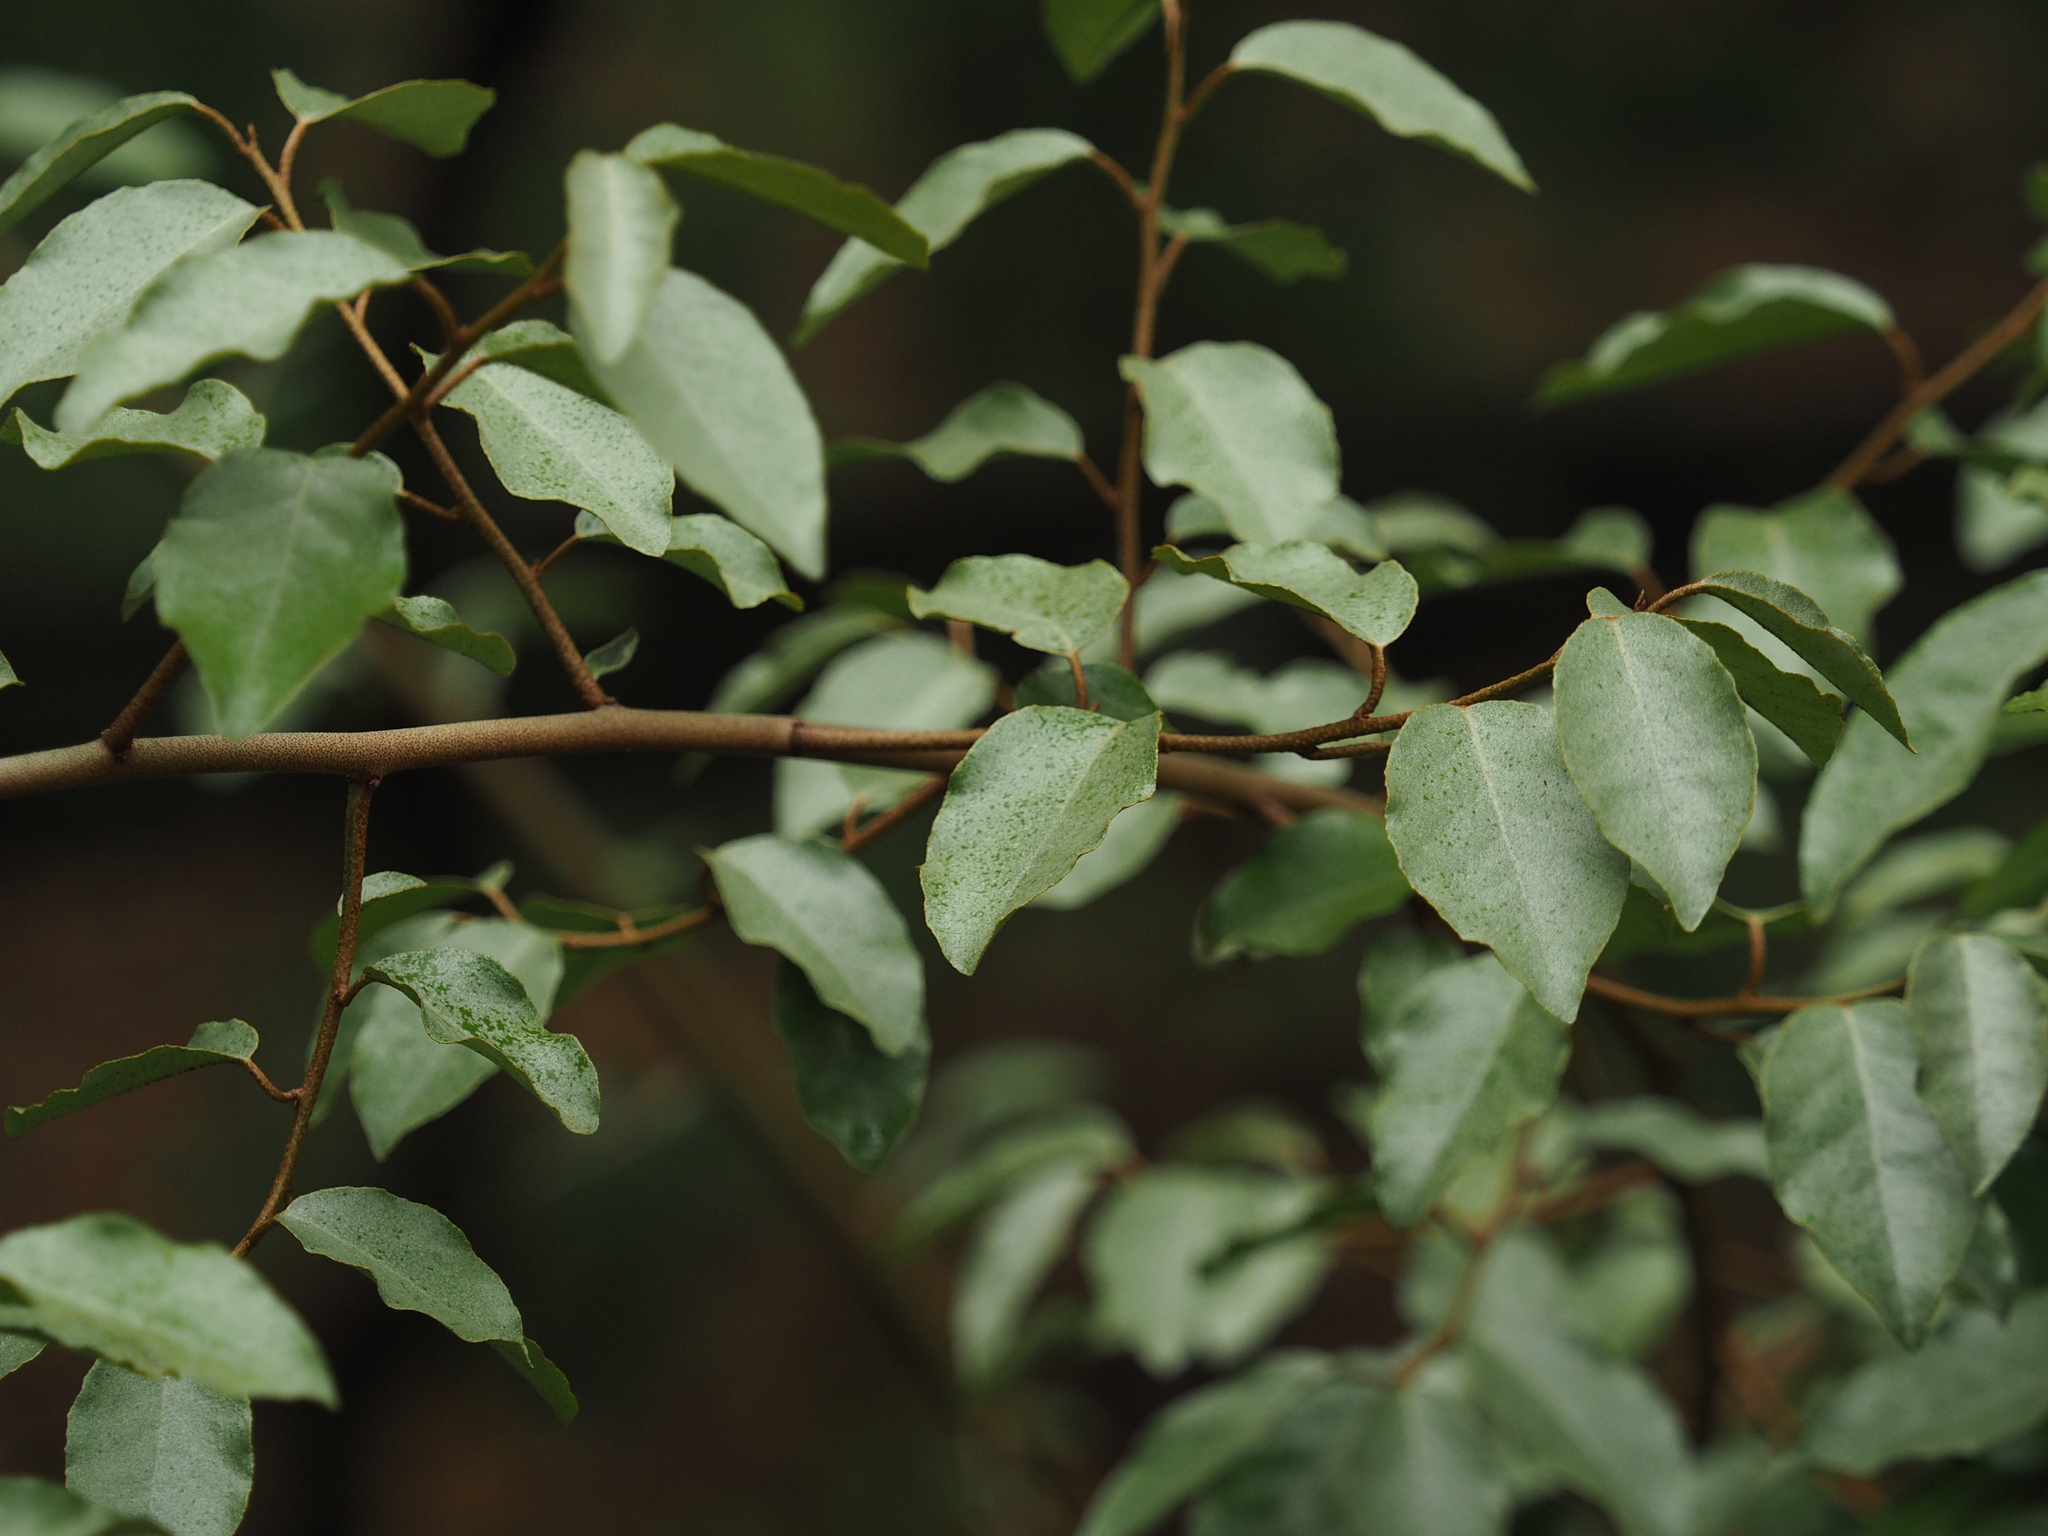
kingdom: Plantae
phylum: Tracheophyta
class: Magnoliopsida
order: Rosales
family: Elaeagnaceae
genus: Elaeagnus
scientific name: Elaeagnus pungens
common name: Spiny oleaster
